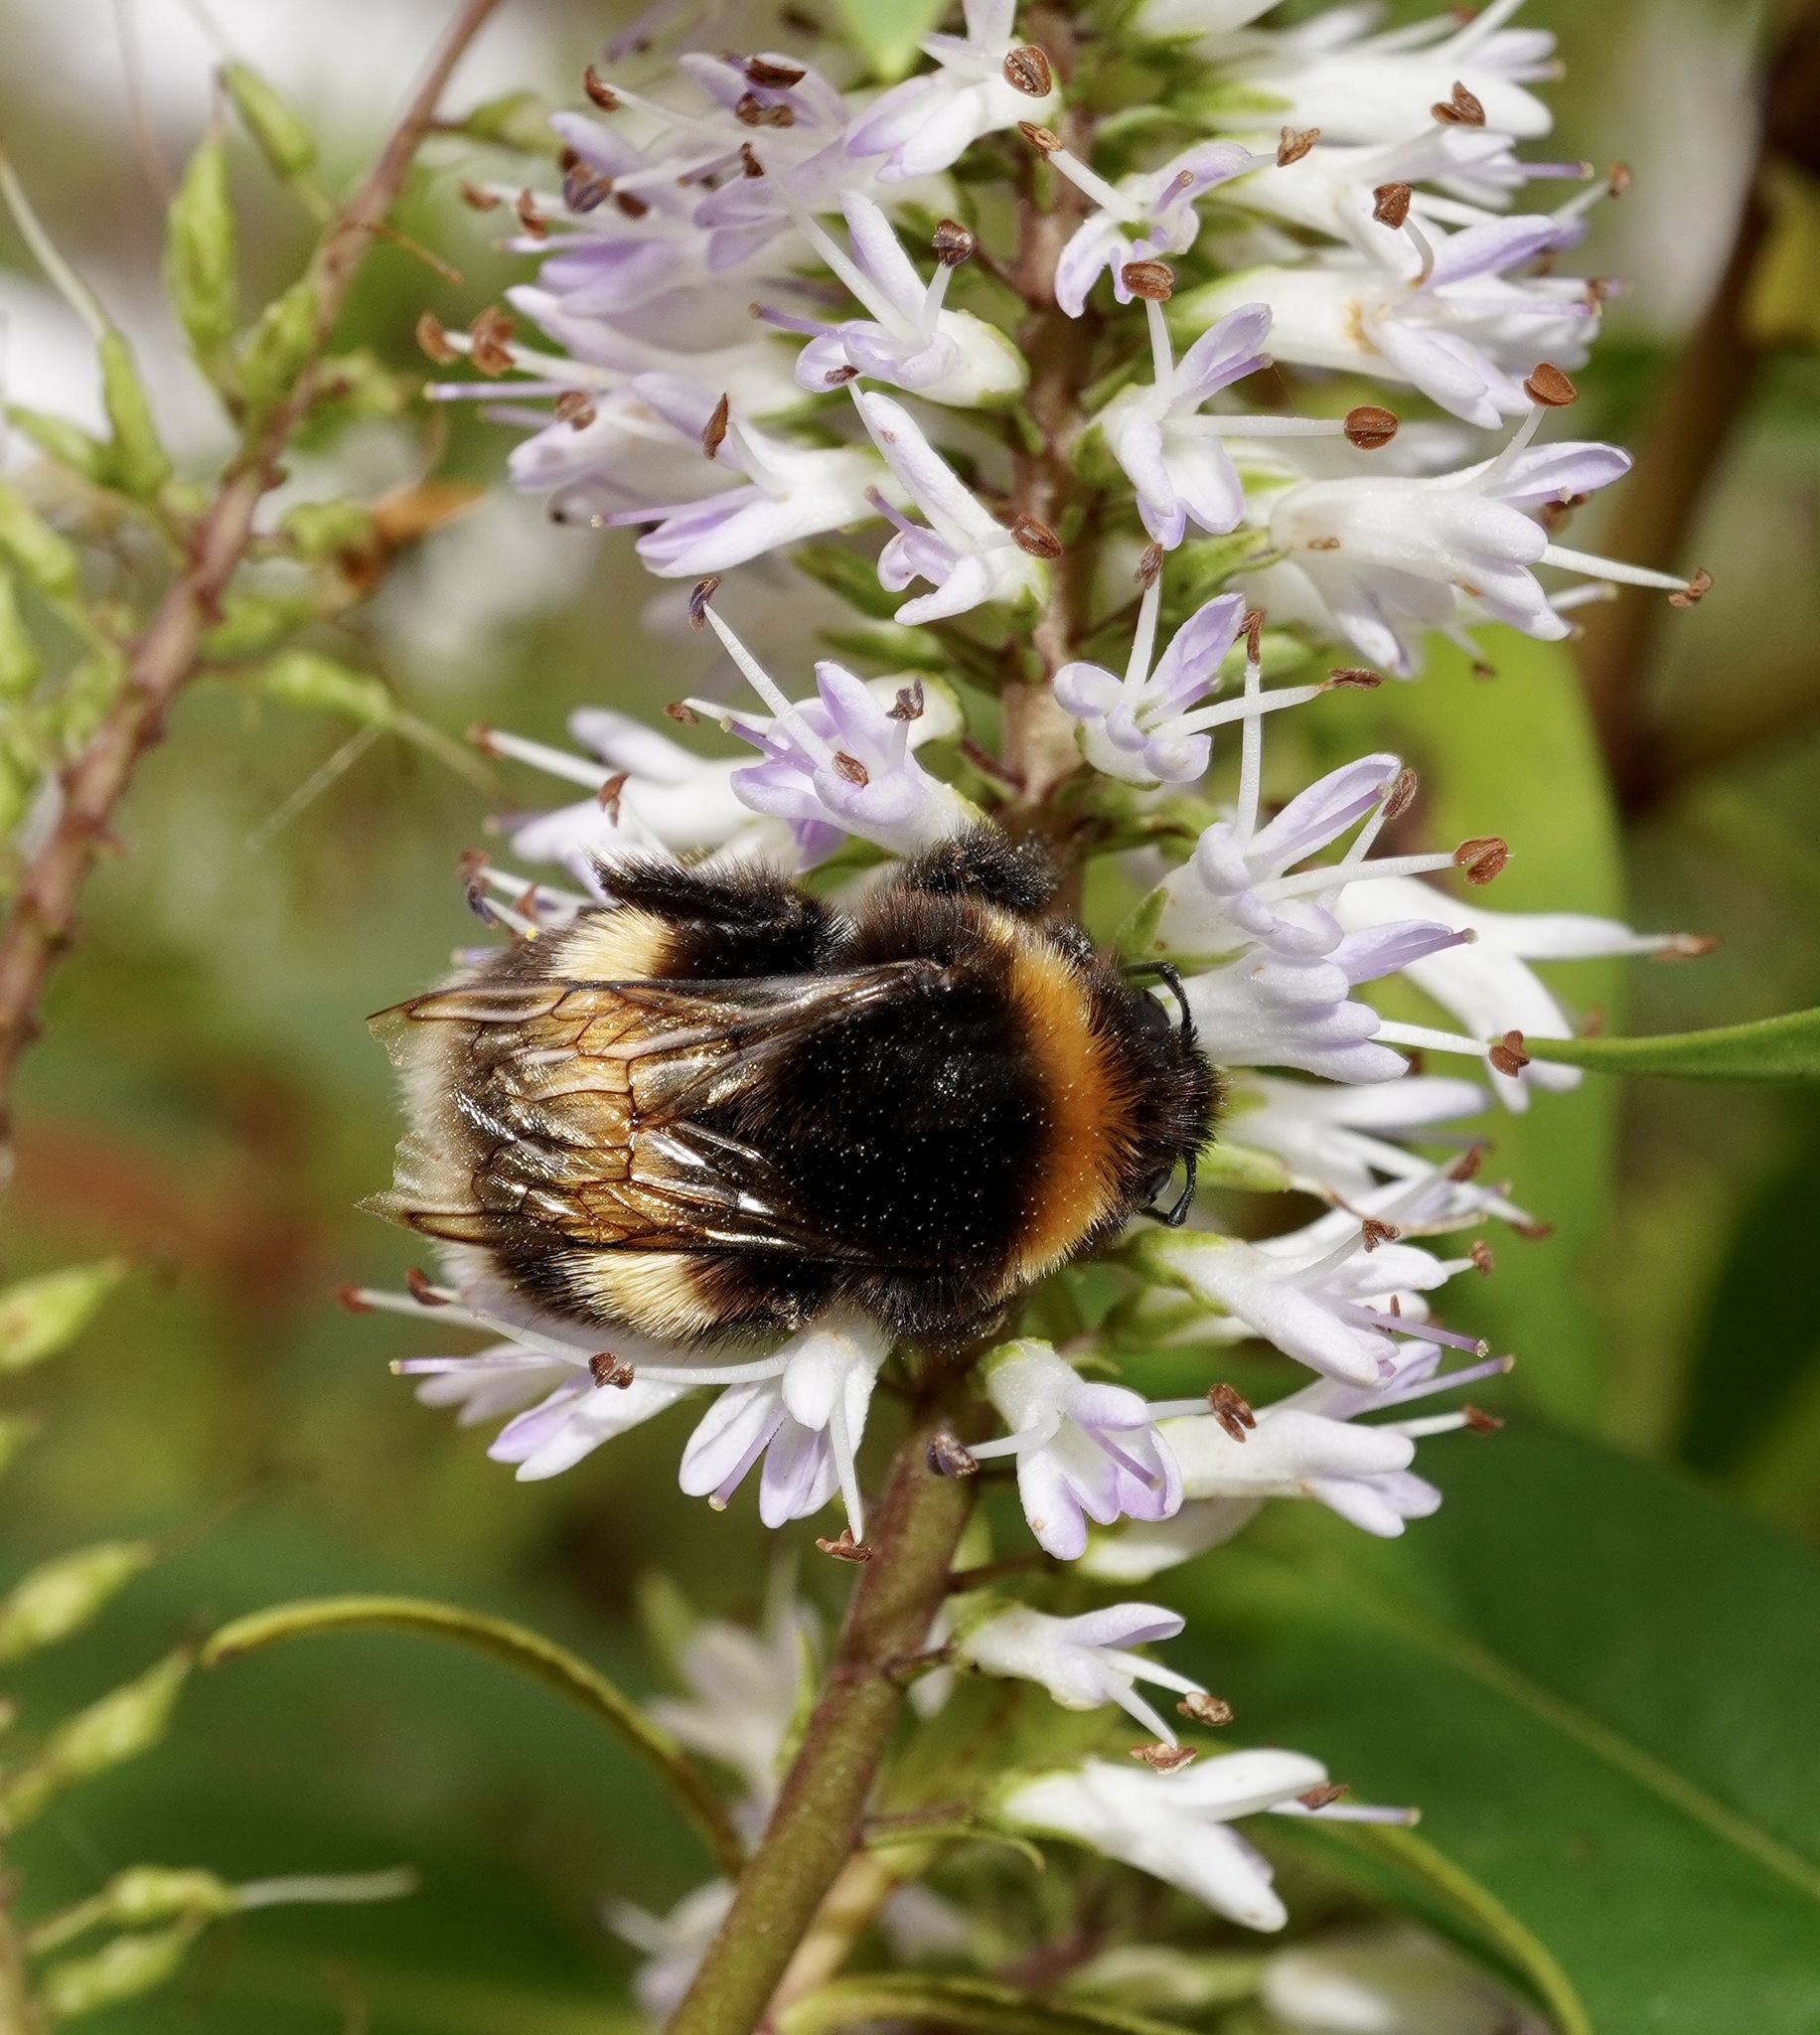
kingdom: Animalia
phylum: Arthropoda
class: Insecta
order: Hymenoptera
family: Apidae
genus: Bombus
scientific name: Bombus terrestris
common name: Buff-tailed bumblebee
